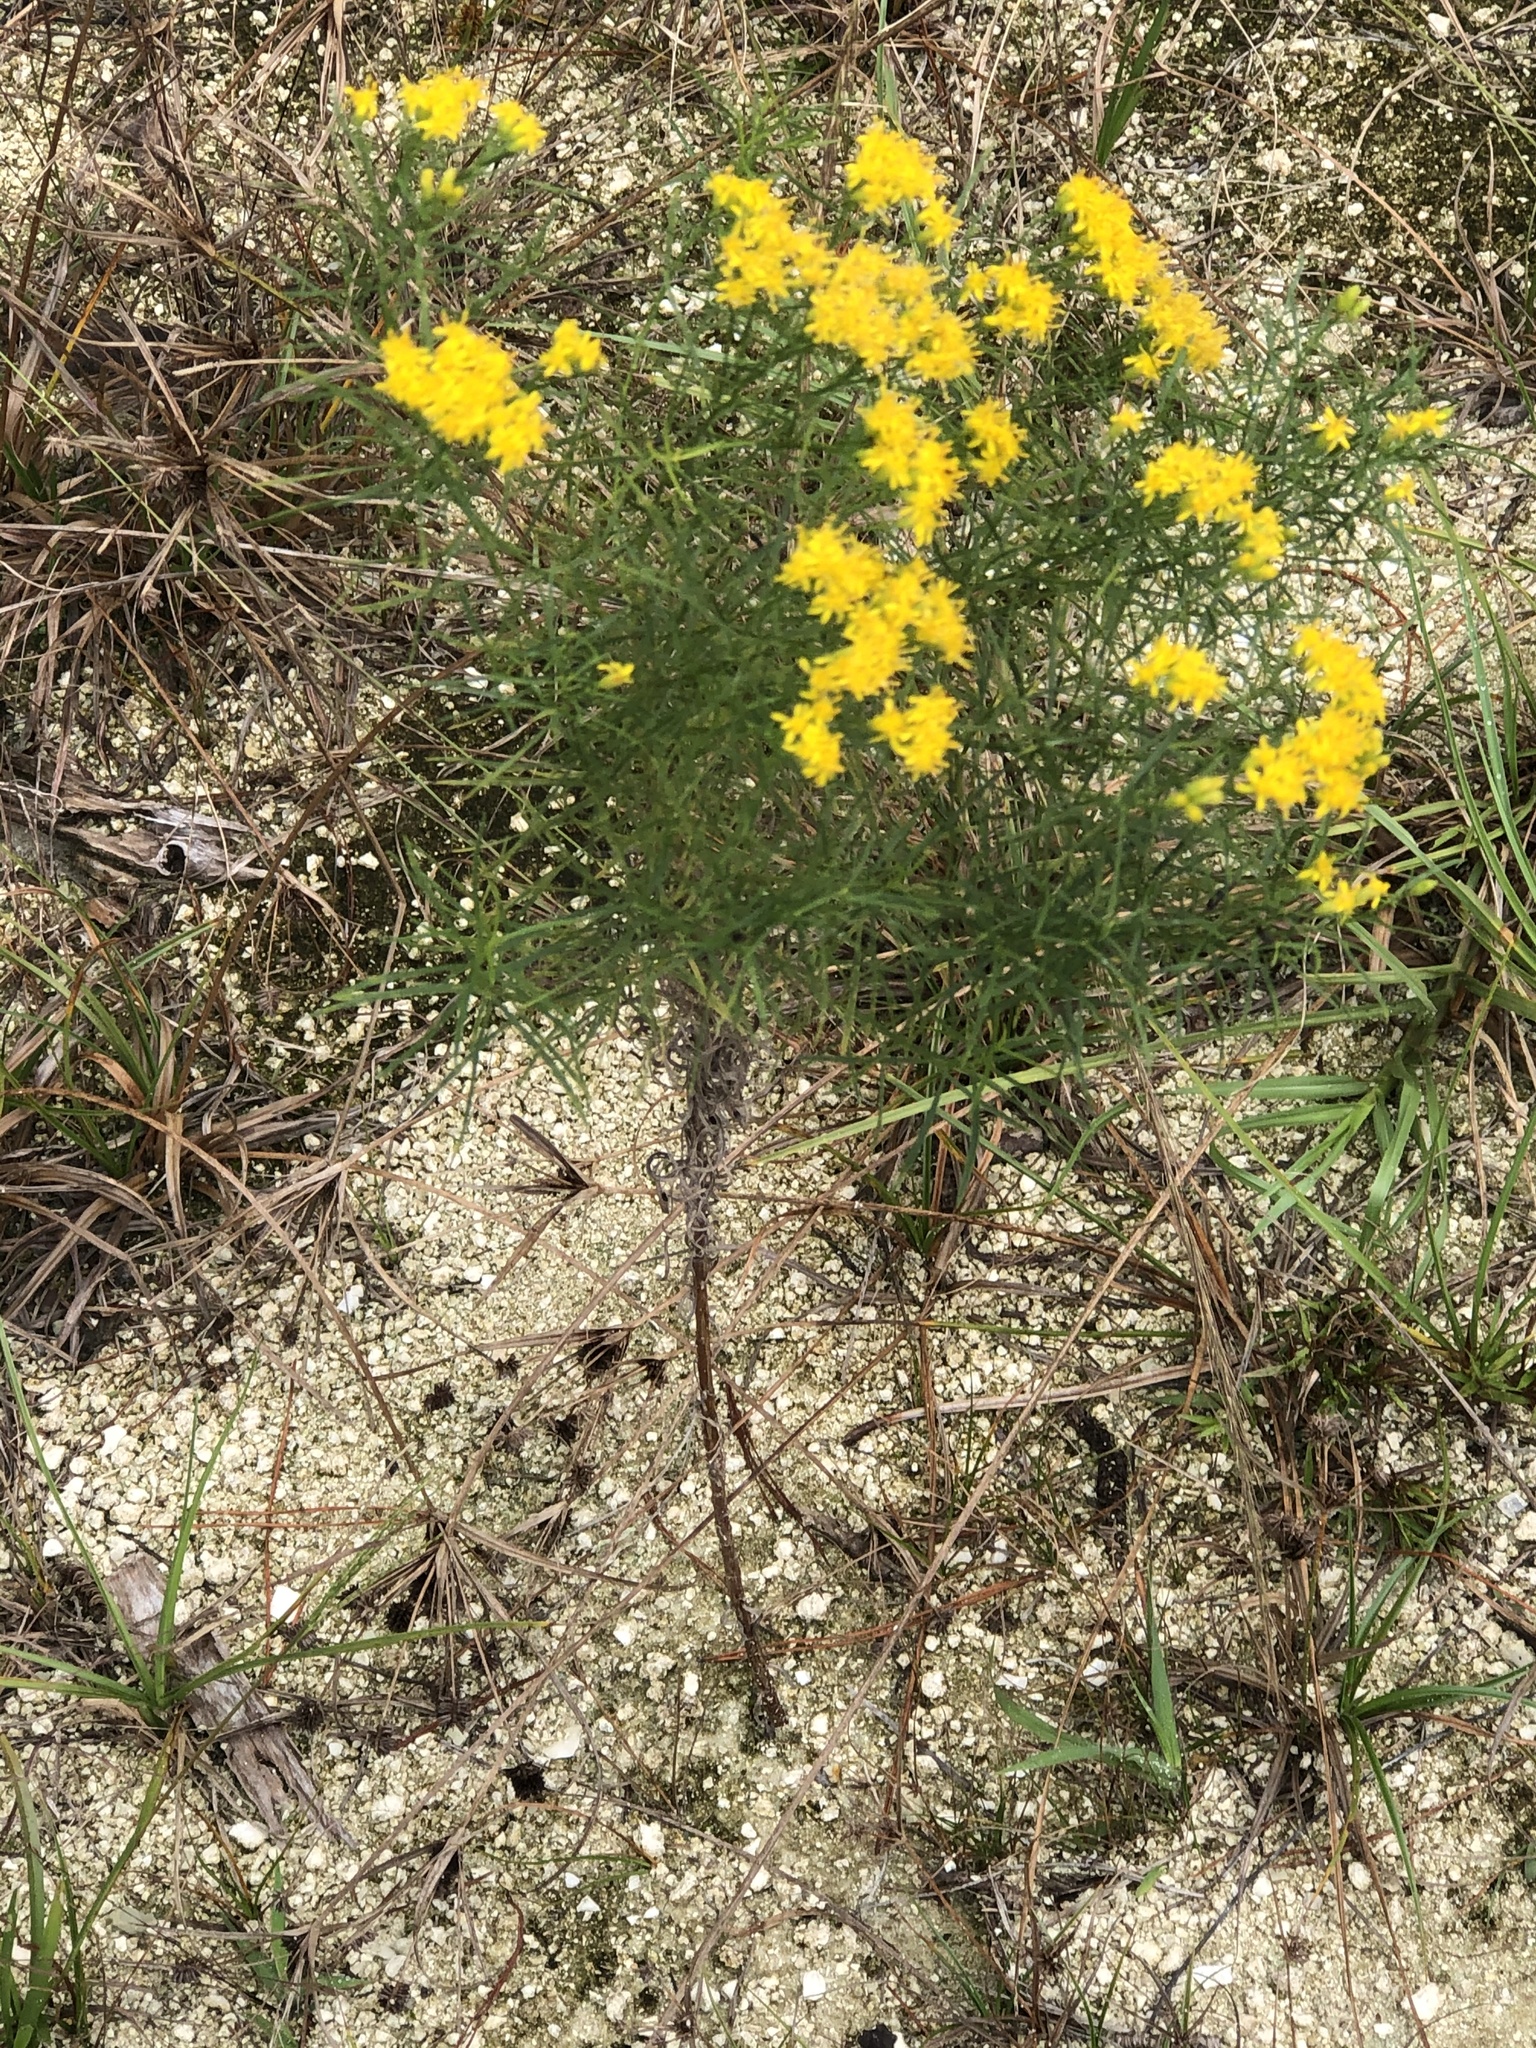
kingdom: Plantae
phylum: Tracheophyta
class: Magnoliopsida
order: Asterales
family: Asteraceae
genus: Euthamia
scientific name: Euthamia caroliniana
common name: Coastal plain goldentop
